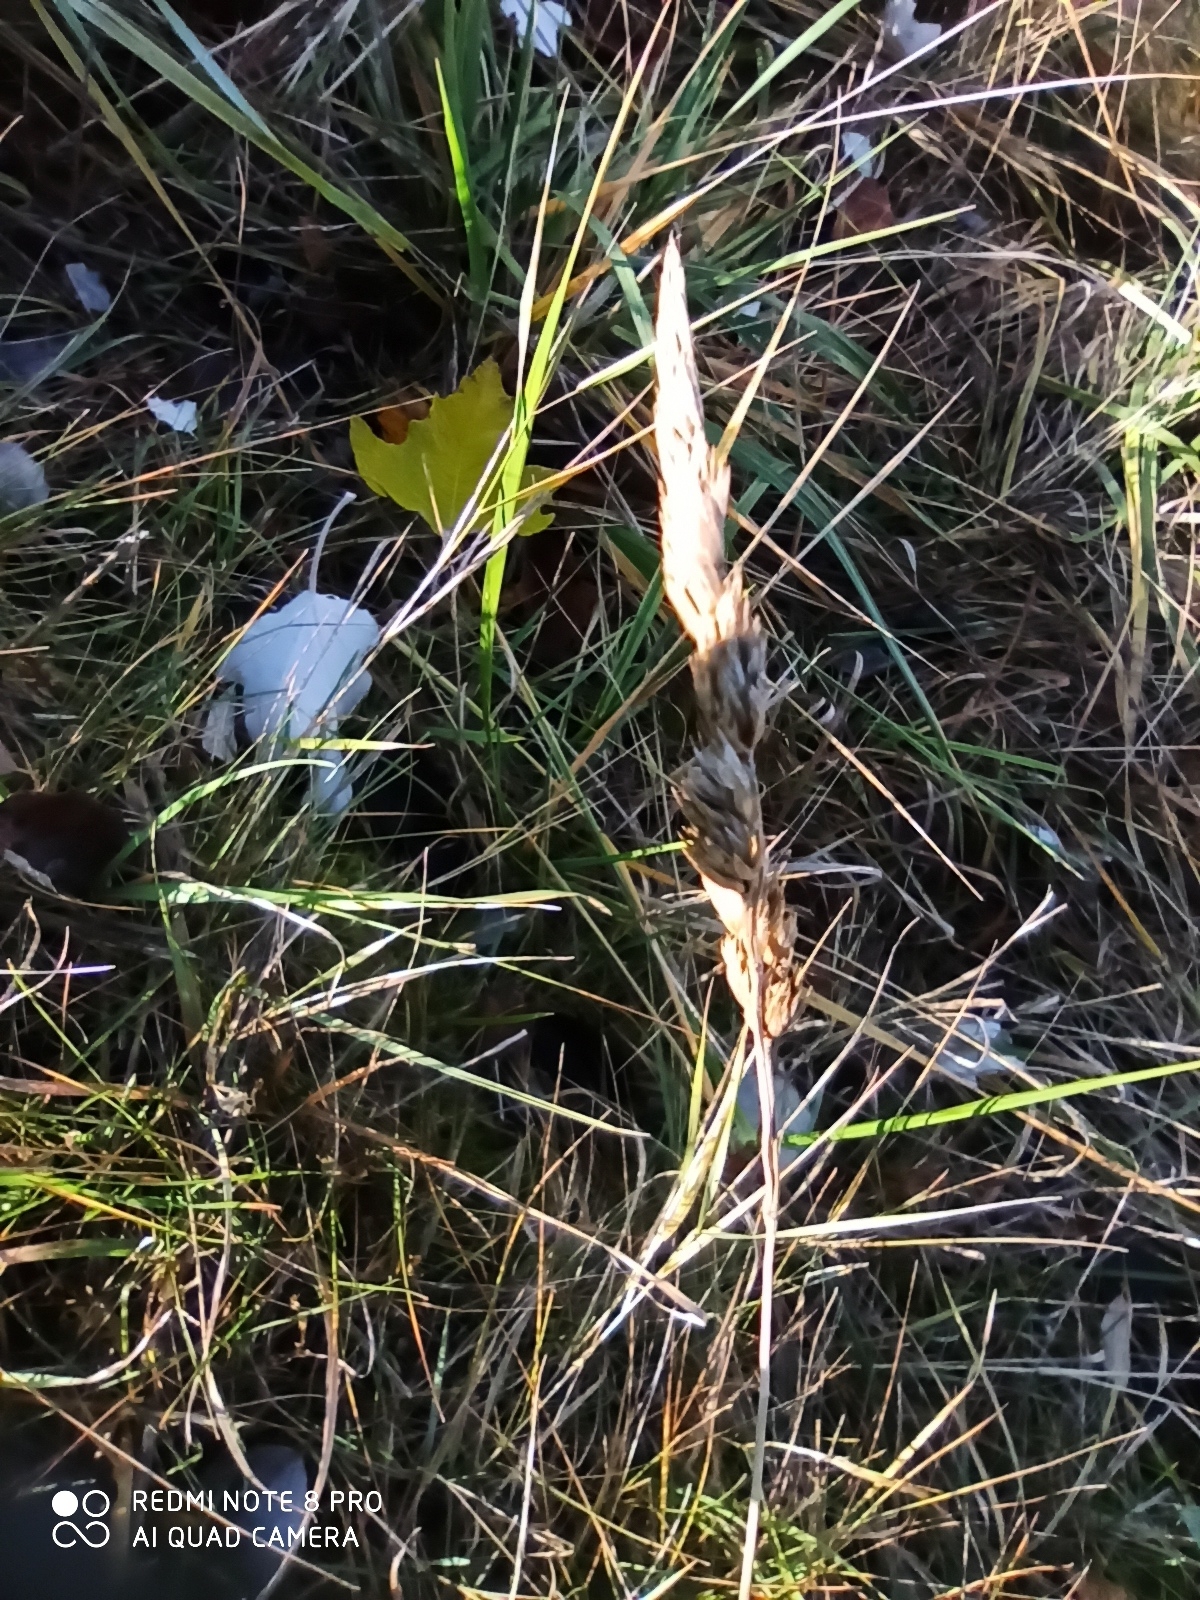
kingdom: Plantae
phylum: Tracheophyta
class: Liliopsida
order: Poales
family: Poaceae
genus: Dactylis
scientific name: Dactylis glomerata
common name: Orchardgrass
